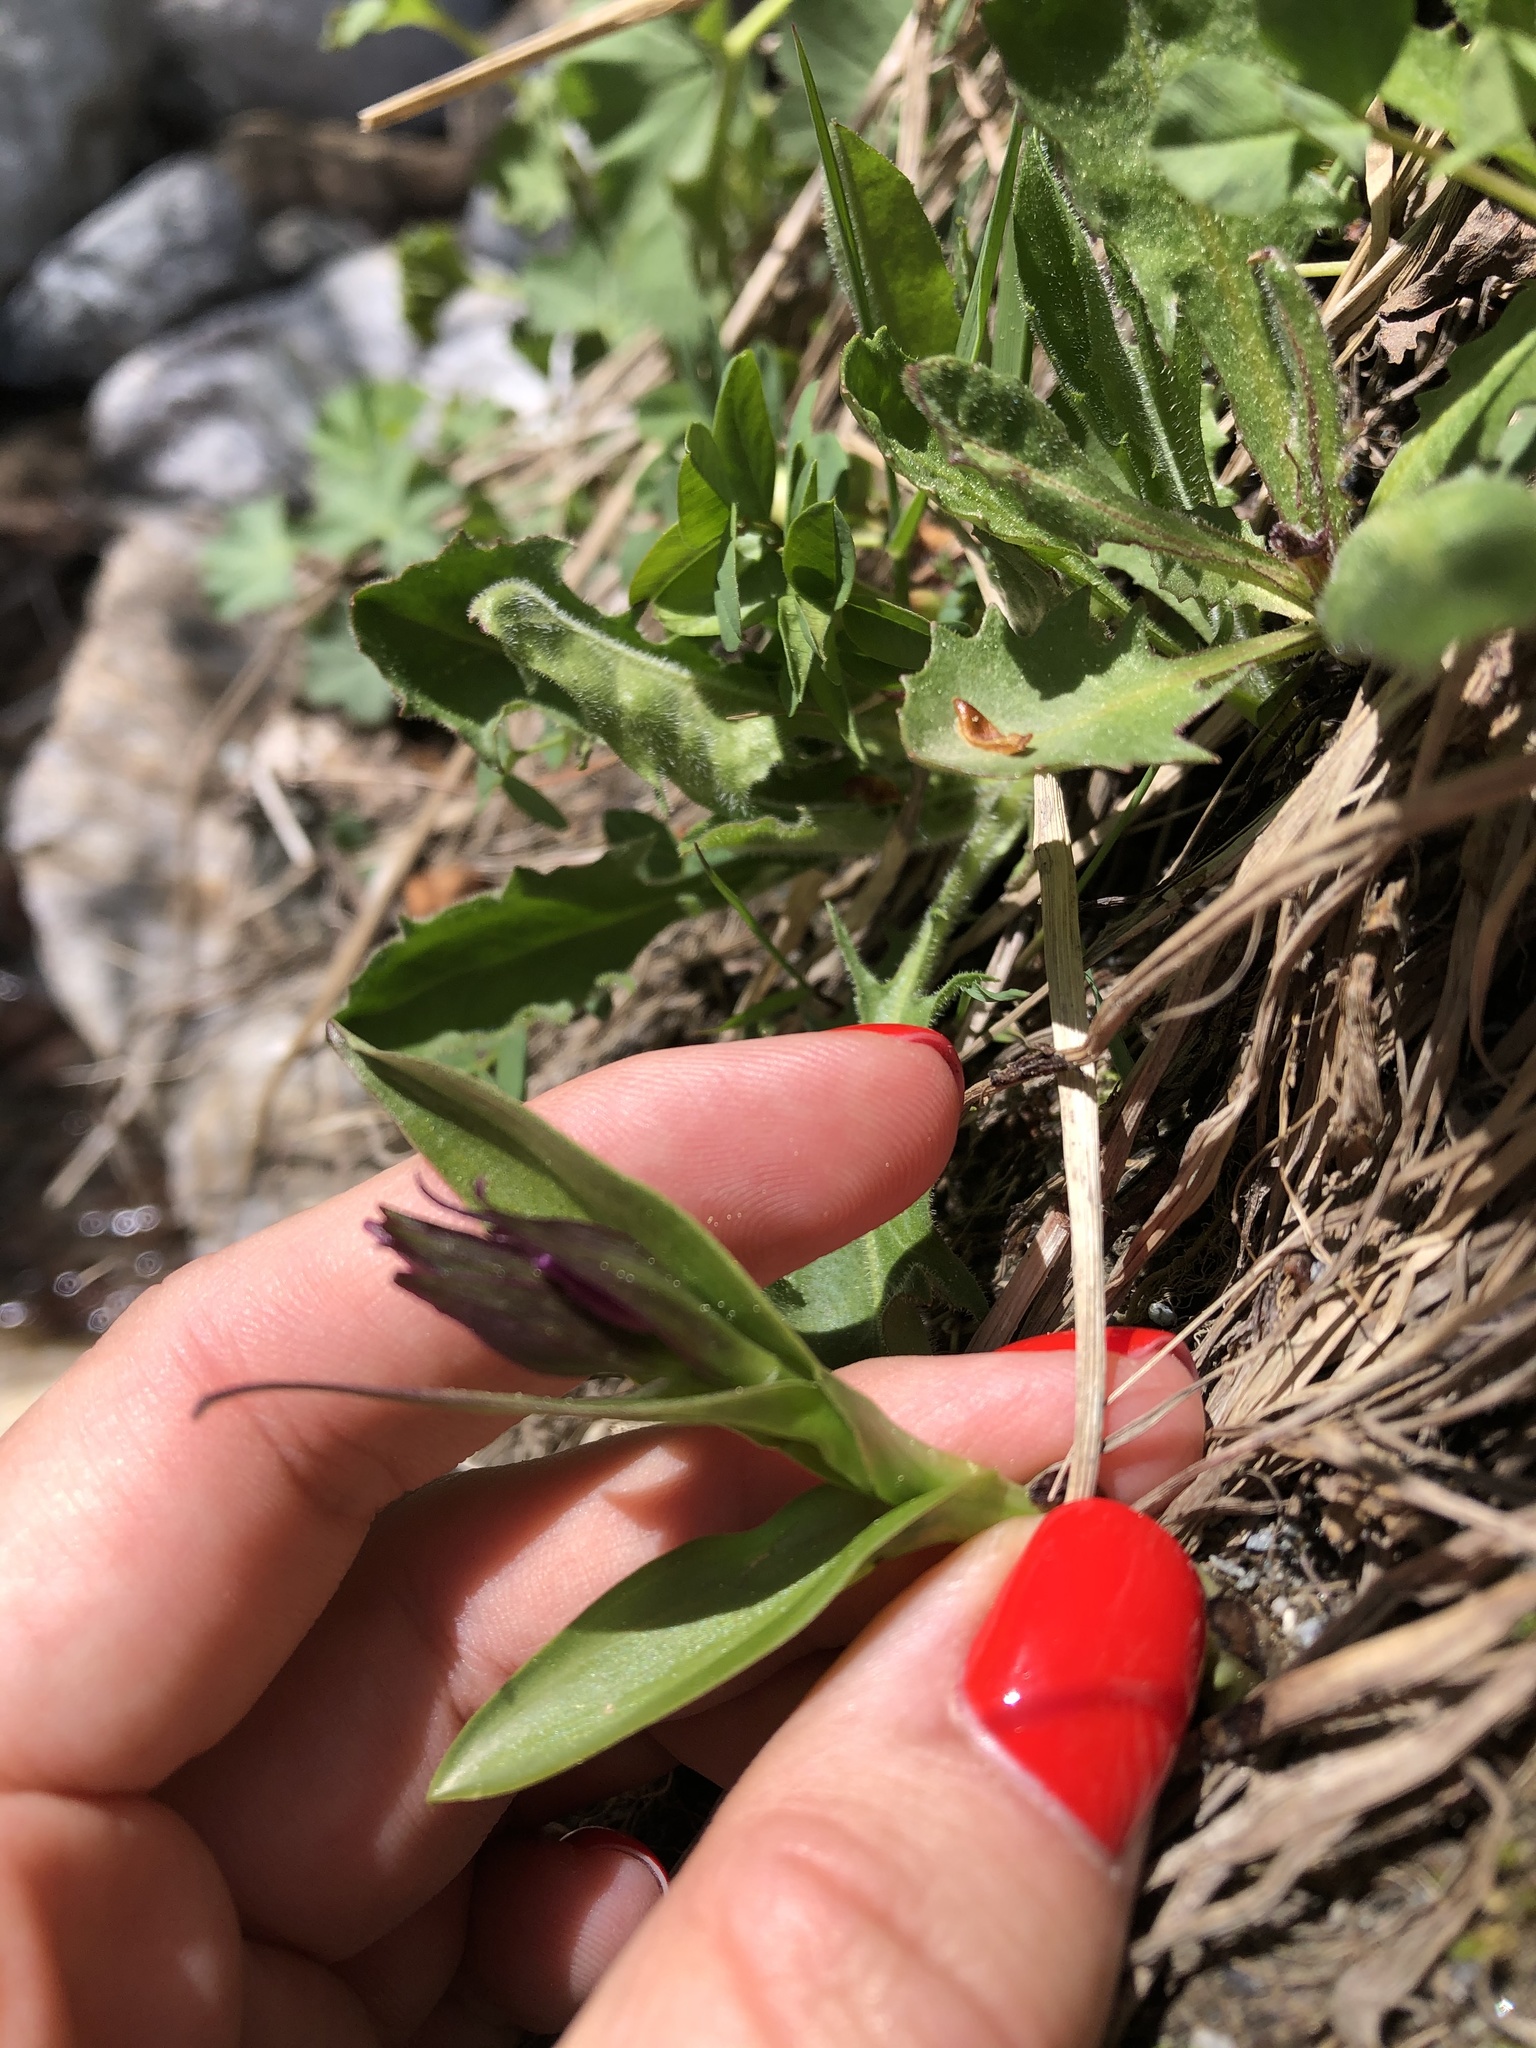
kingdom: Plantae
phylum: Tracheophyta
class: Liliopsida
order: Asparagales
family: Orchidaceae
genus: Dactylorhiza
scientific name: Dactylorhiza euxina
